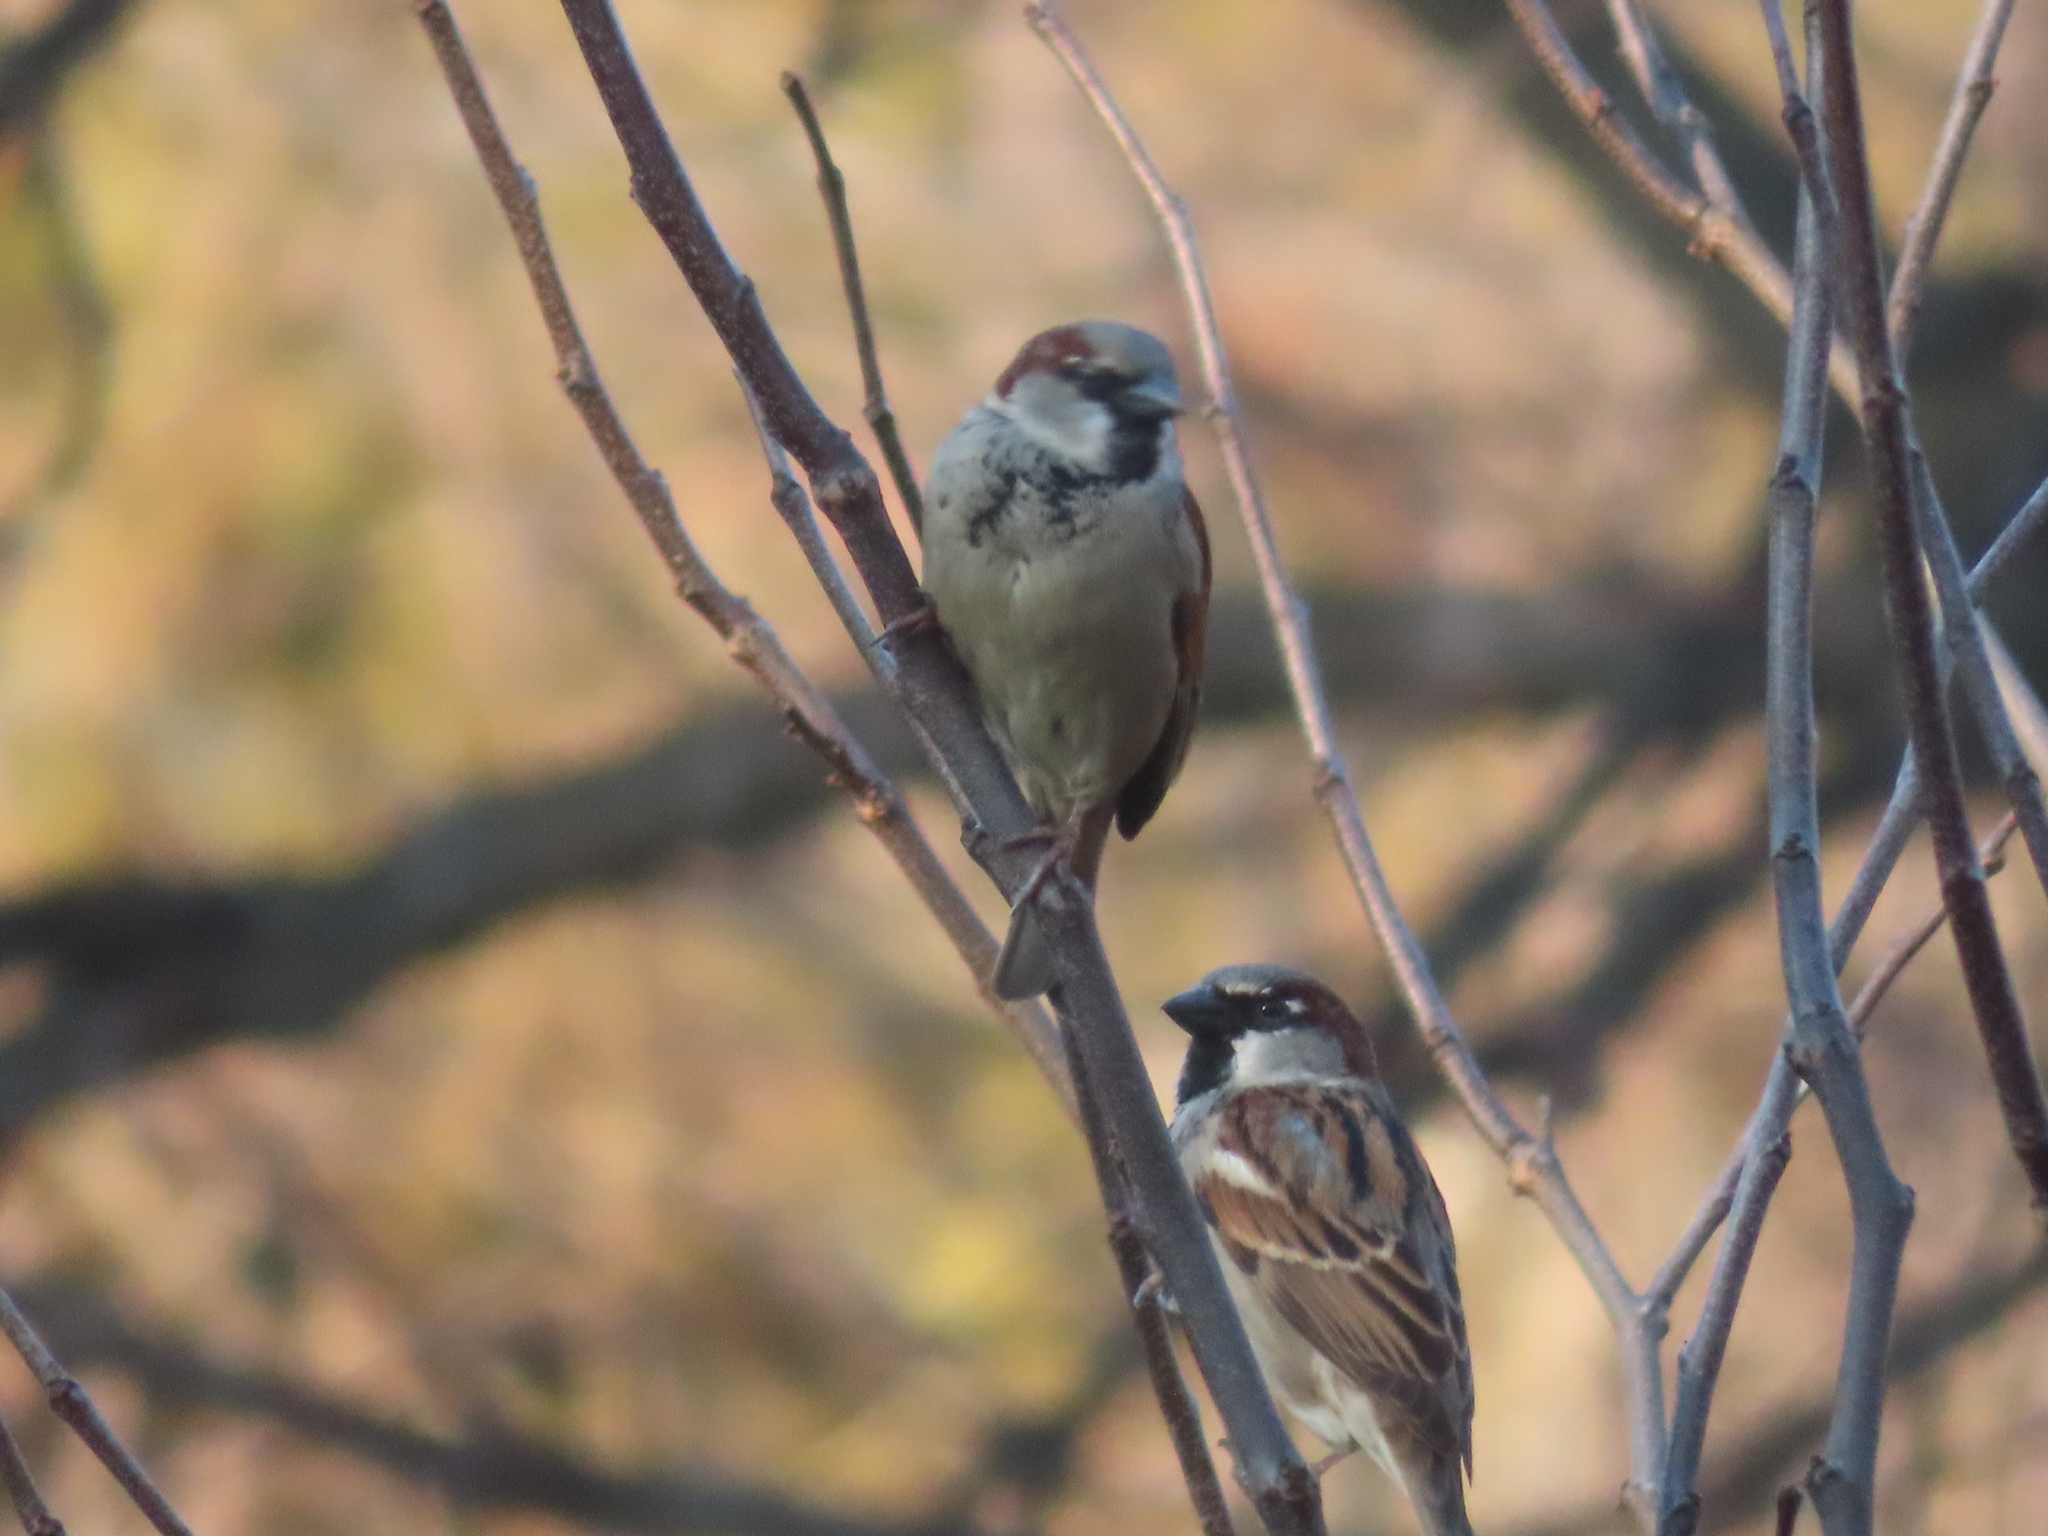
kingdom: Animalia
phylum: Chordata
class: Aves
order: Passeriformes
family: Passeridae
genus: Passer
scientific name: Passer domesticus
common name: House sparrow
